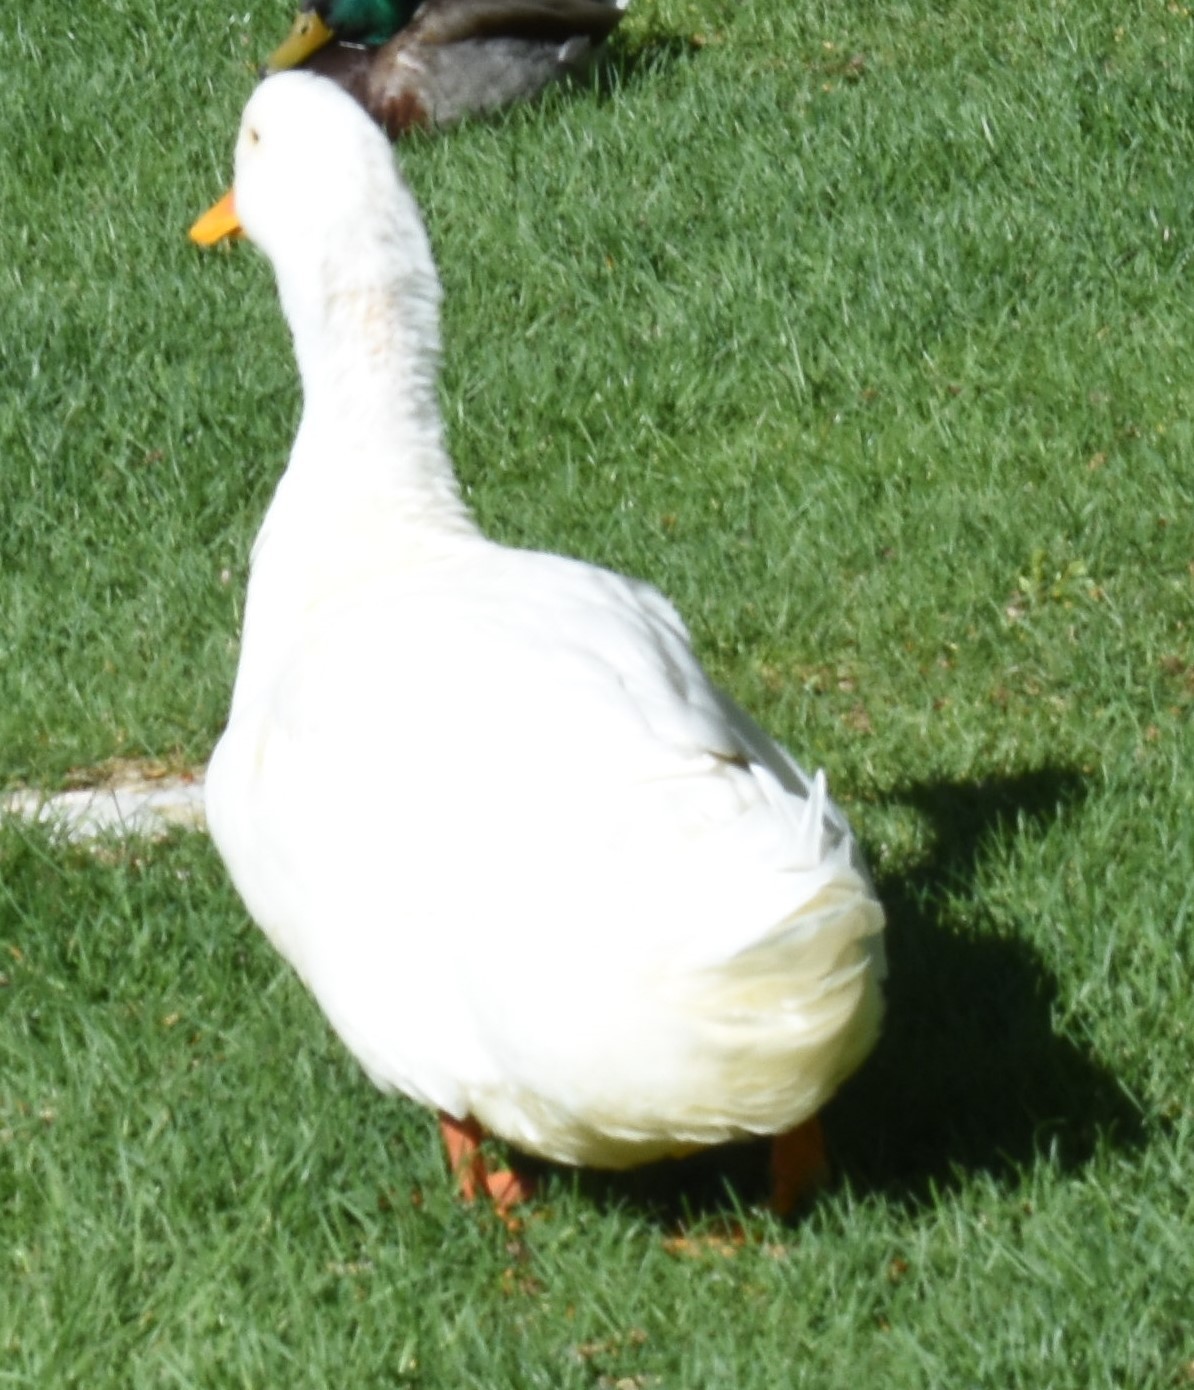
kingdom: Animalia
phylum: Chordata
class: Aves
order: Anseriformes
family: Anatidae
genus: Anas
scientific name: Anas platyrhynchos
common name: Mallard
